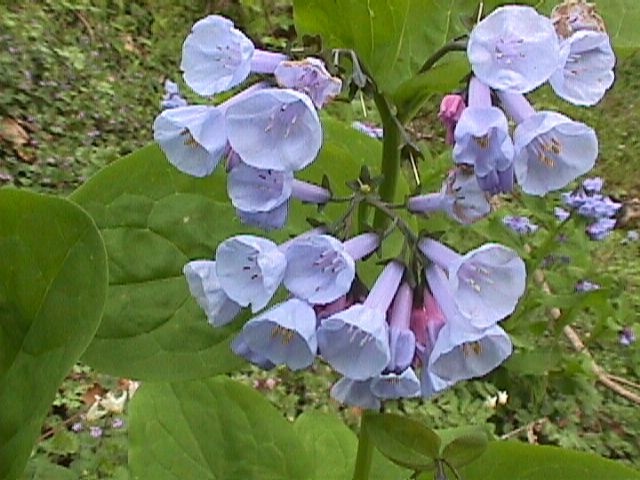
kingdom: Plantae
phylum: Tracheophyta
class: Magnoliopsida
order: Boraginales
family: Boraginaceae
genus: Mertensia
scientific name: Mertensia virginica
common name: Virginia bluebells
